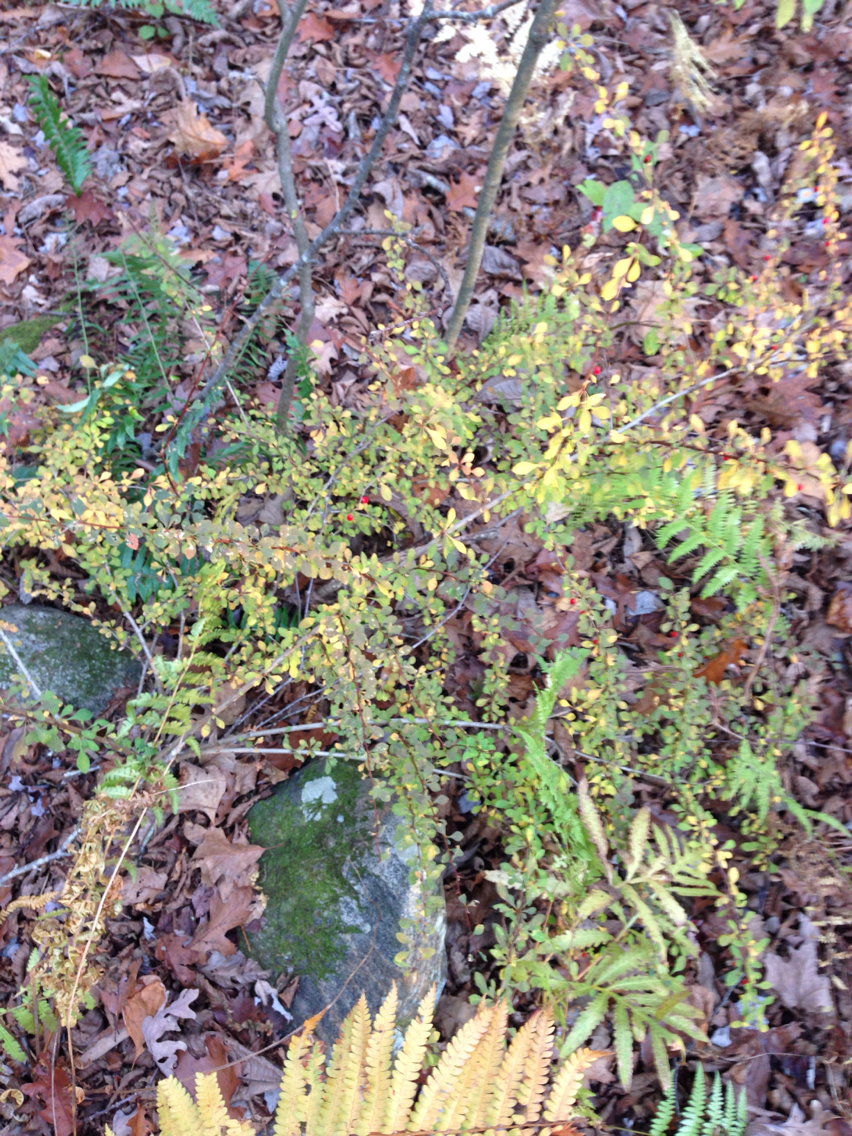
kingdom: Plantae
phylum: Tracheophyta
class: Magnoliopsida
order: Ranunculales
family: Berberidaceae
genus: Berberis
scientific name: Berberis thunbergii
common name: Japanese barberry
